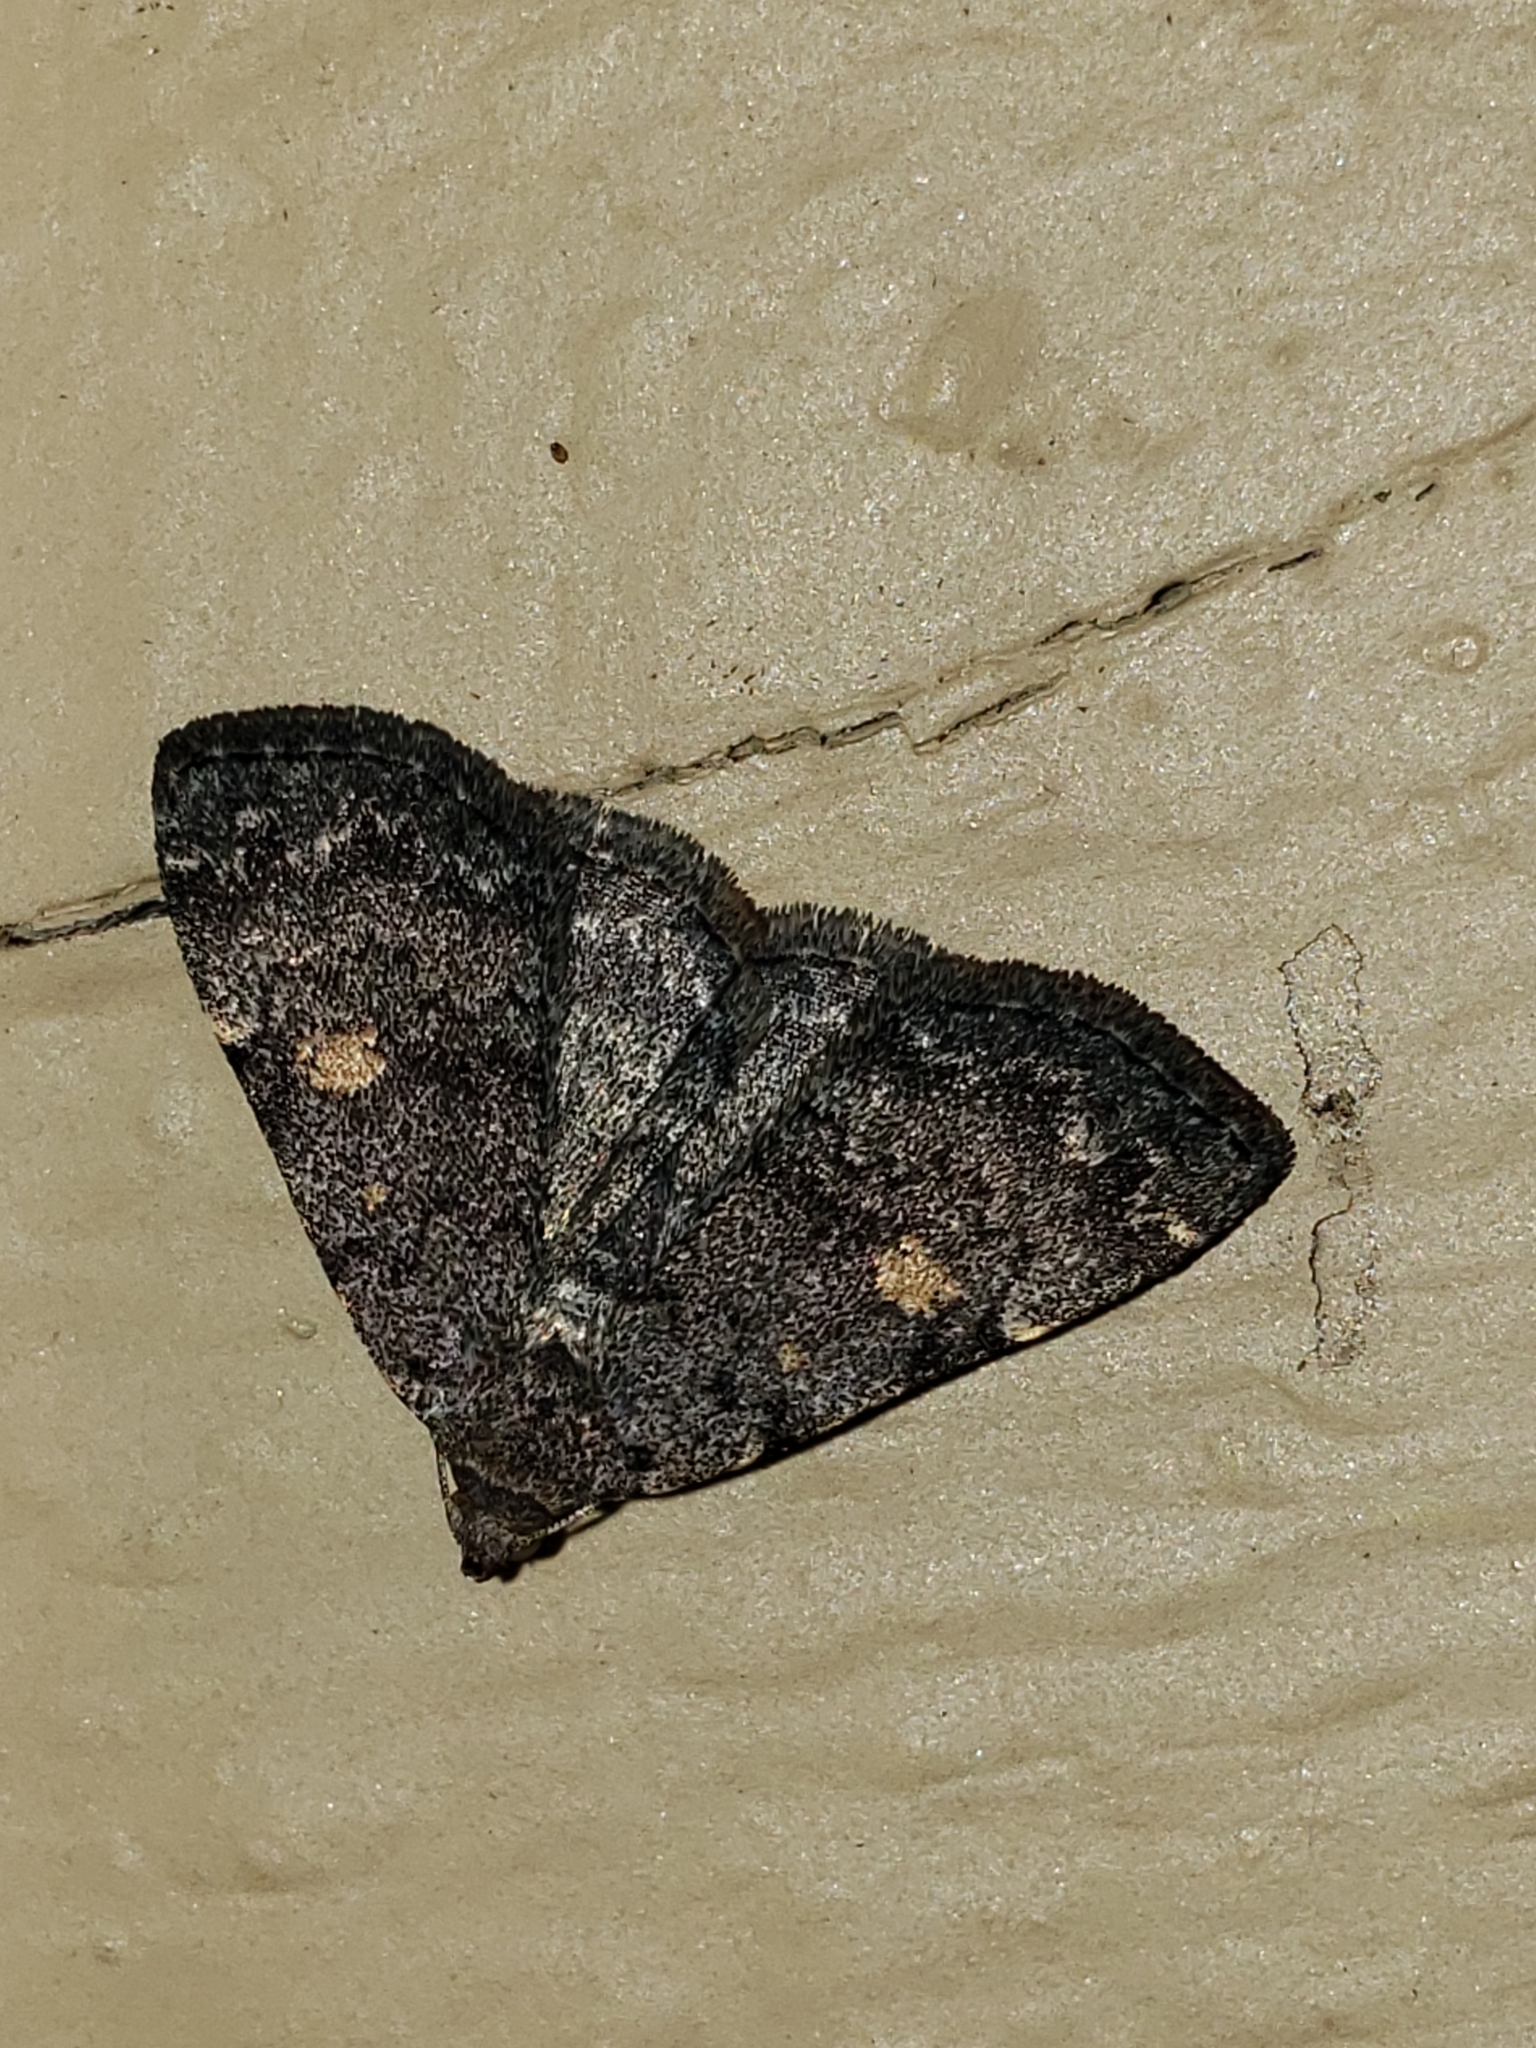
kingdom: Animalia
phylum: Arthropoda
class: Insecta
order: Lepidoptera
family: Erebidae
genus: Idia
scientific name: Idia aemula
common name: Common idia moth
